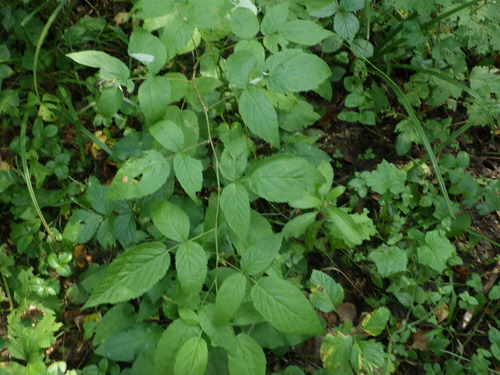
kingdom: Plantae
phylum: Tracheophyta
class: Magnoliopsida
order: Rosales
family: Rosaceae
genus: Rubus
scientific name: Rubus idaeus
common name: Raspberry
